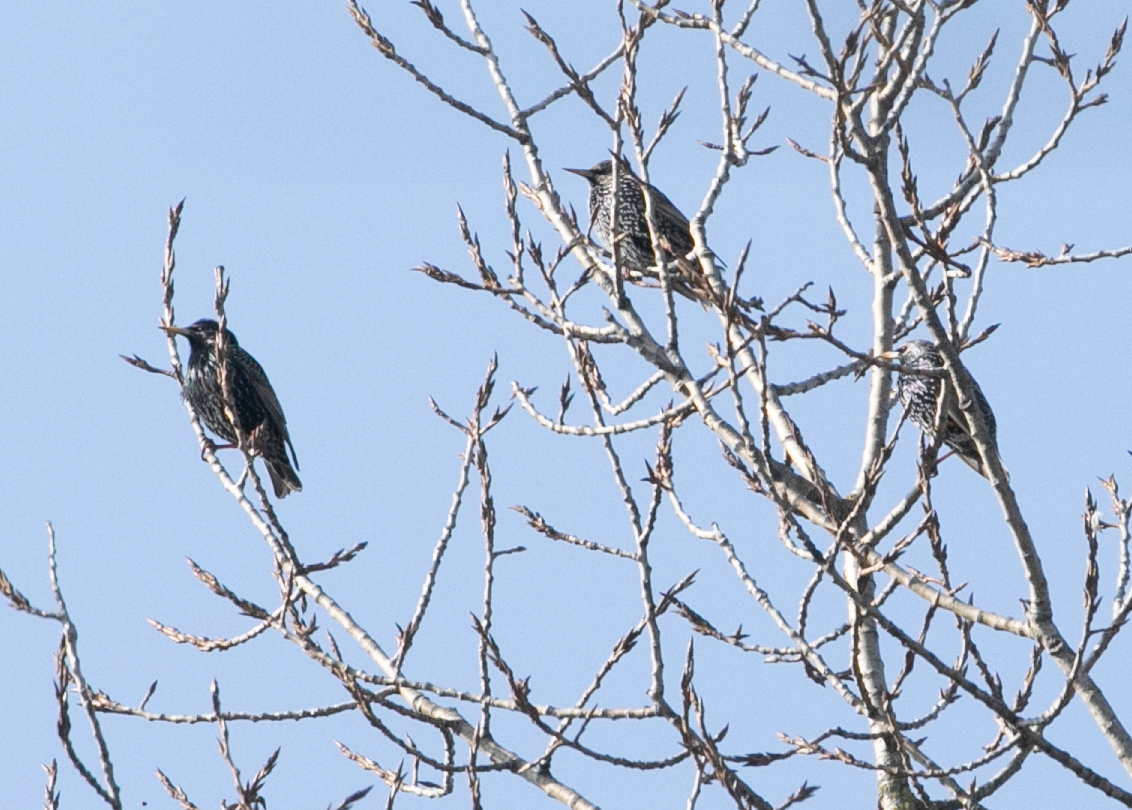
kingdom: Animalia
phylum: Chordata
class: Aves
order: Passeriformes
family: Sturnidae
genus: Sturnus
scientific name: Sturnus vulgaris
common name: Common starling
